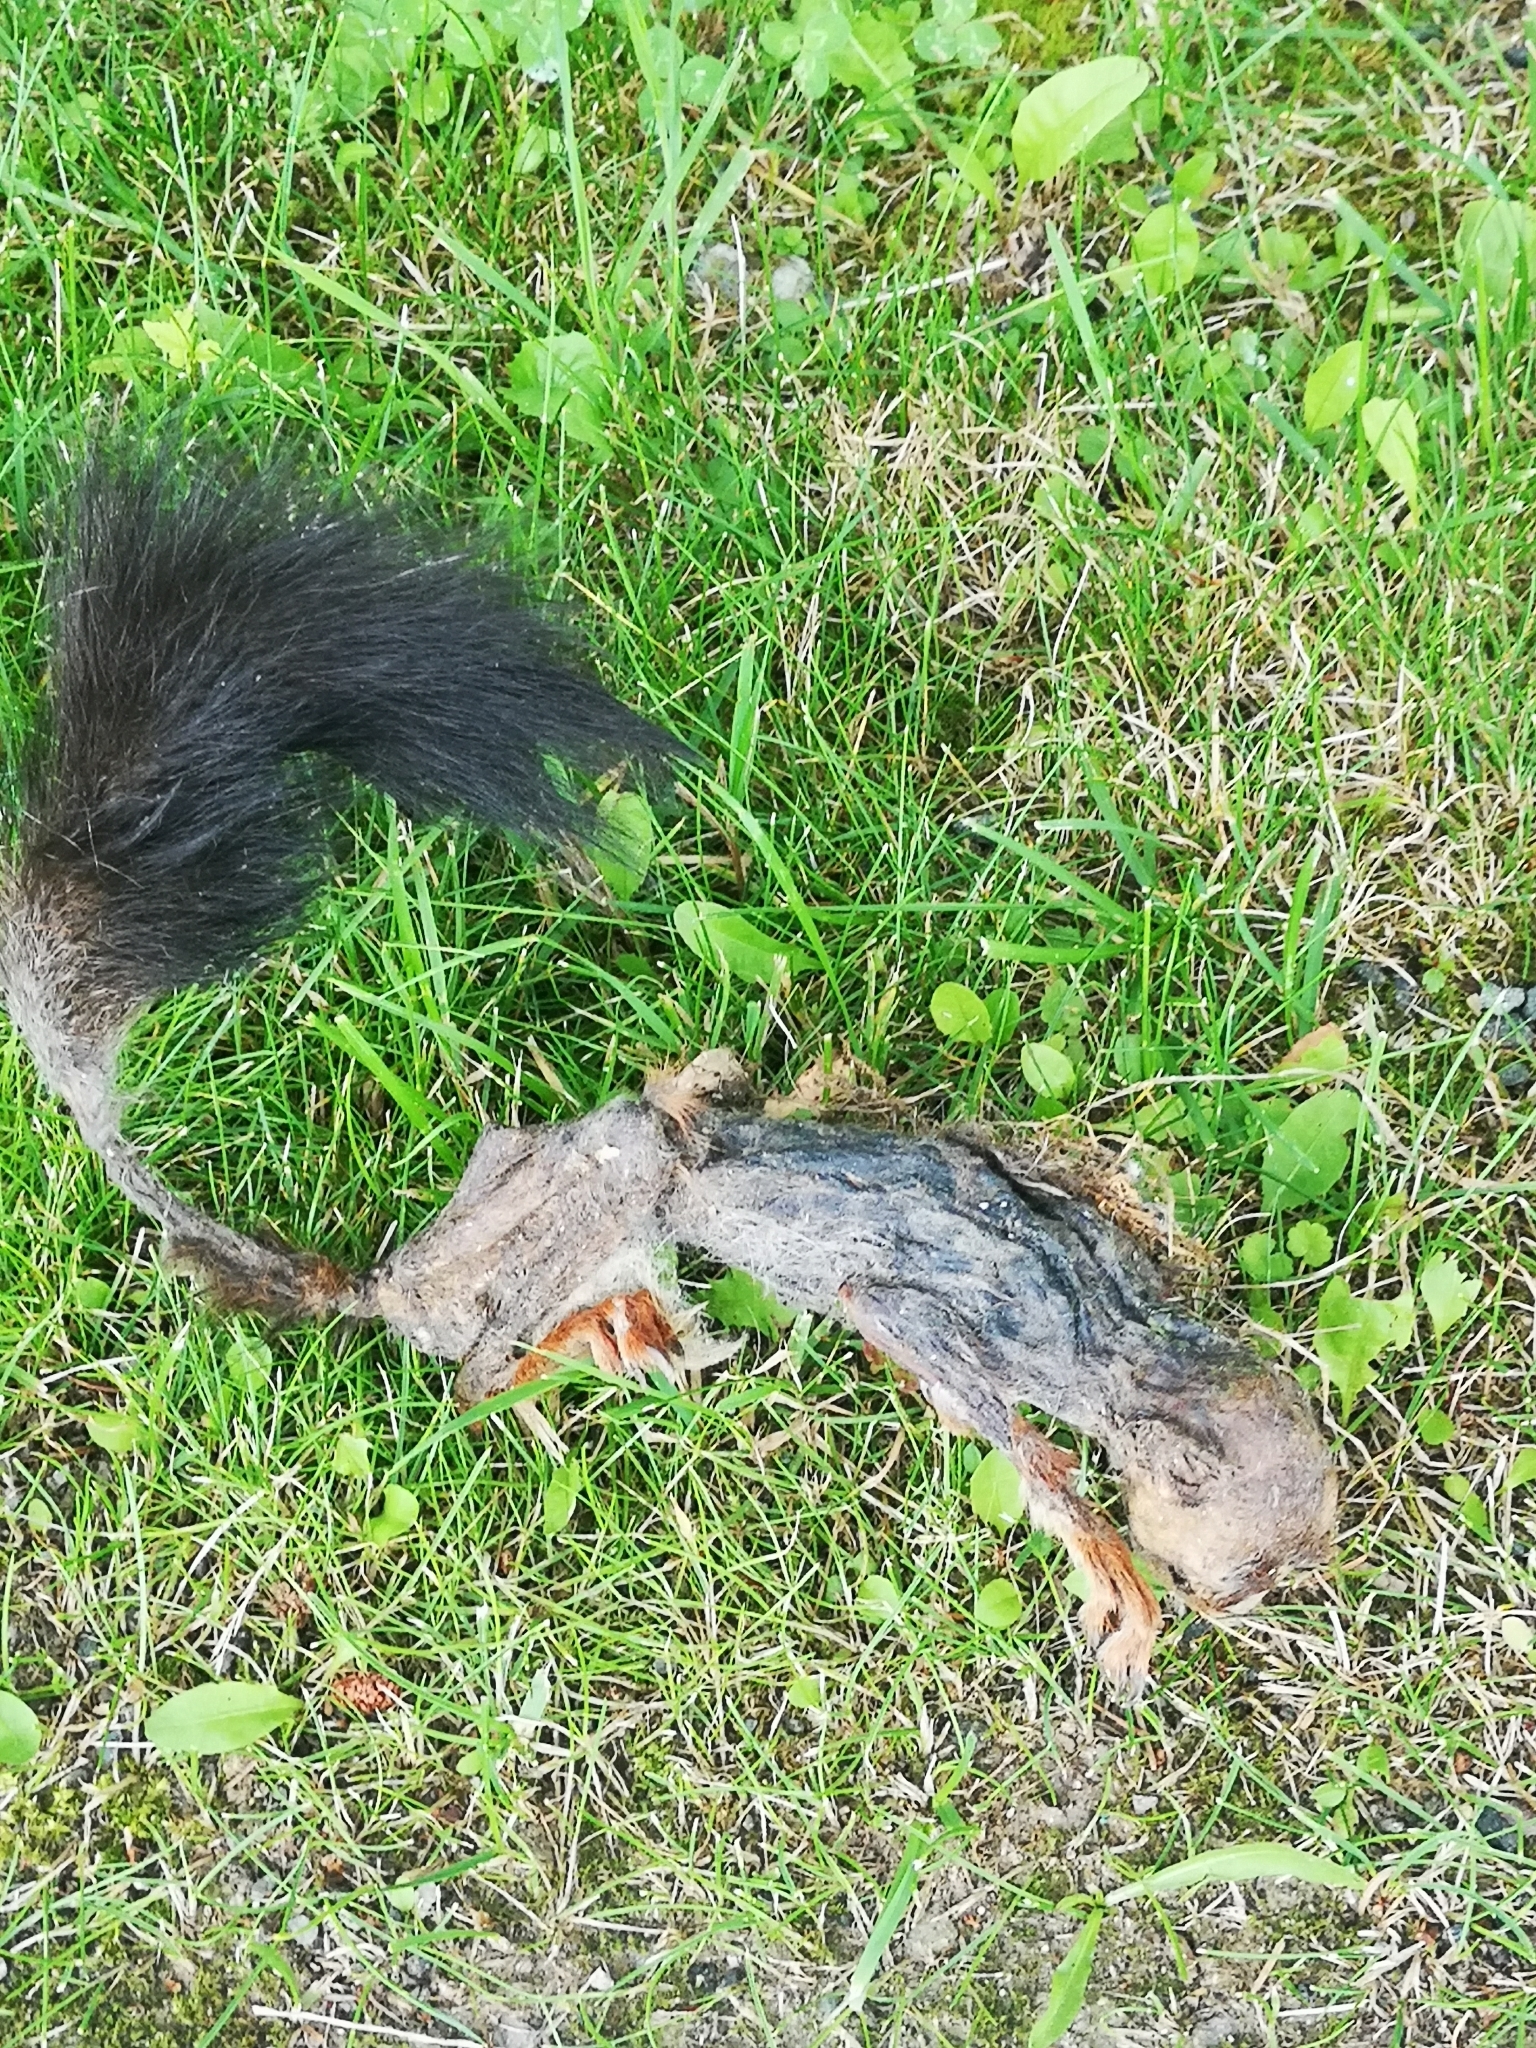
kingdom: Animalia
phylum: Chordata
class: Mammalia
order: Rodentia
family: Sciuridae
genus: Sciurus
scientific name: Sciurus vulgaris
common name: Eurasian red squirrel
